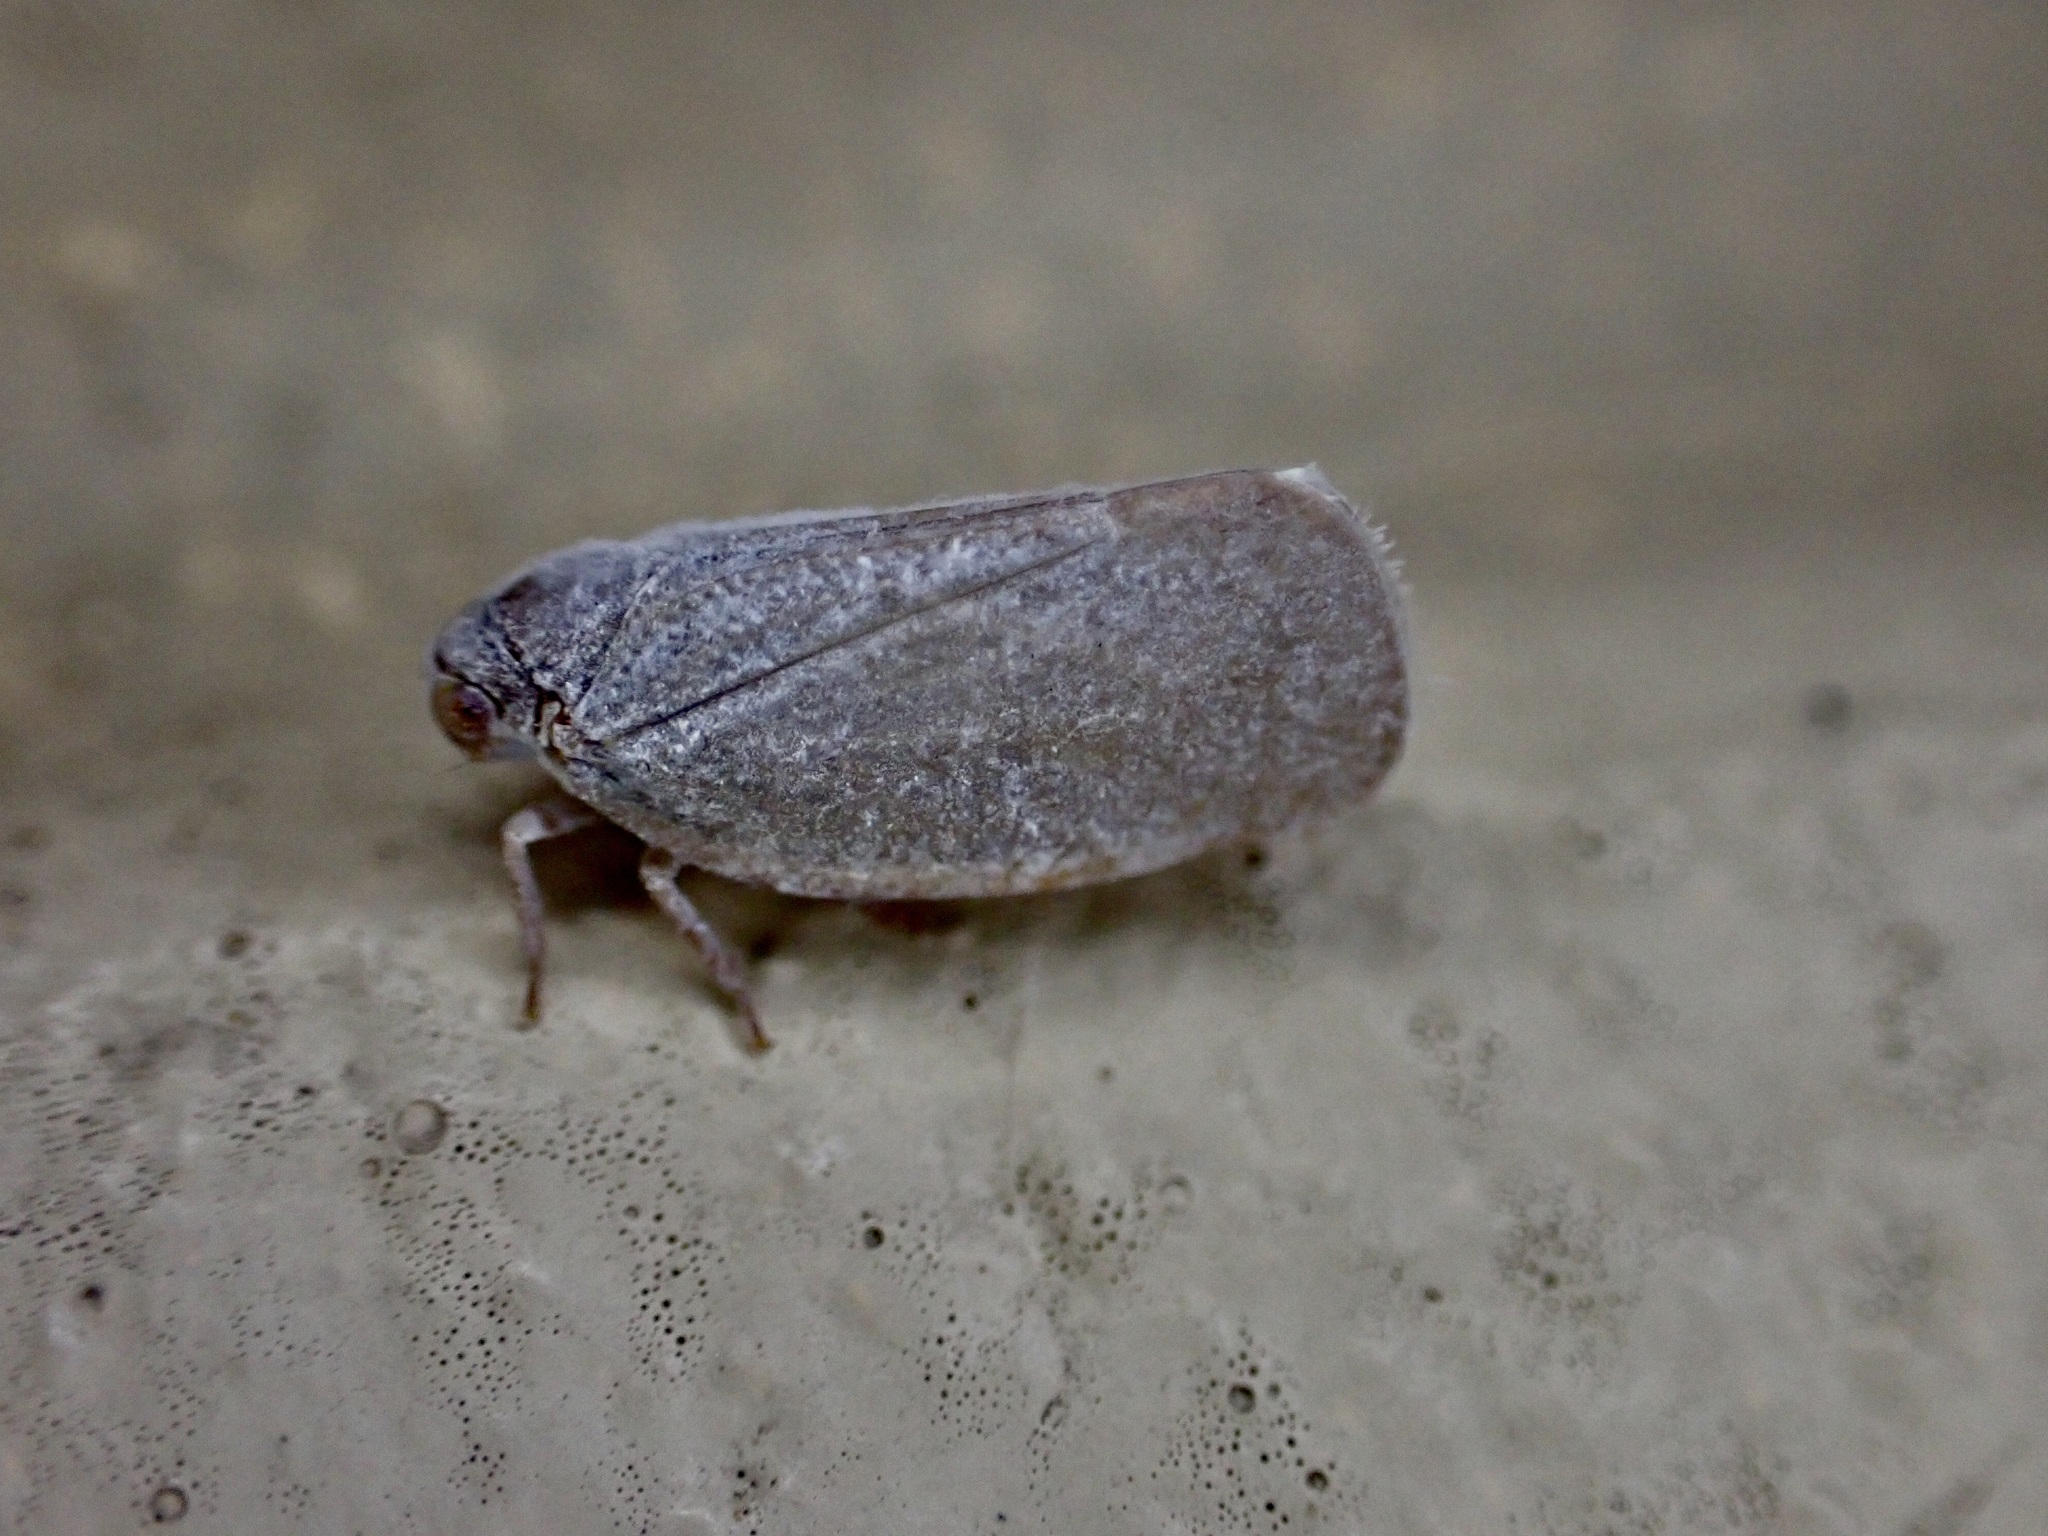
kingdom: Animalia
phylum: Arthropoda
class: Insecta
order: Hemiptera
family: Flatidae
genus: Anzora
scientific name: Anzora unicolor
